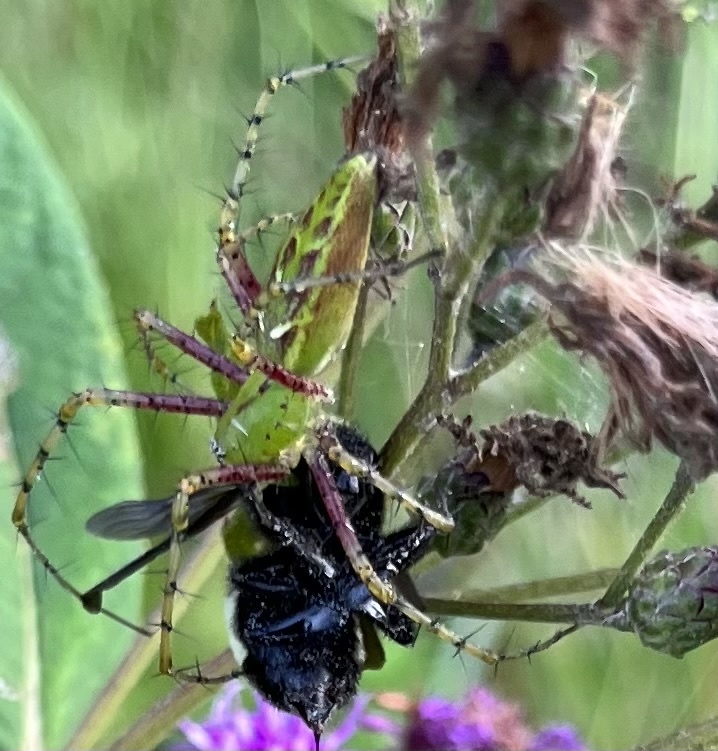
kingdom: Animalia
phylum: Arthropoda
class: Arachnida
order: Araneae
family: Oxyopidae
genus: Peucetia
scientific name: Peucetia viridans
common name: Lynx spiders
